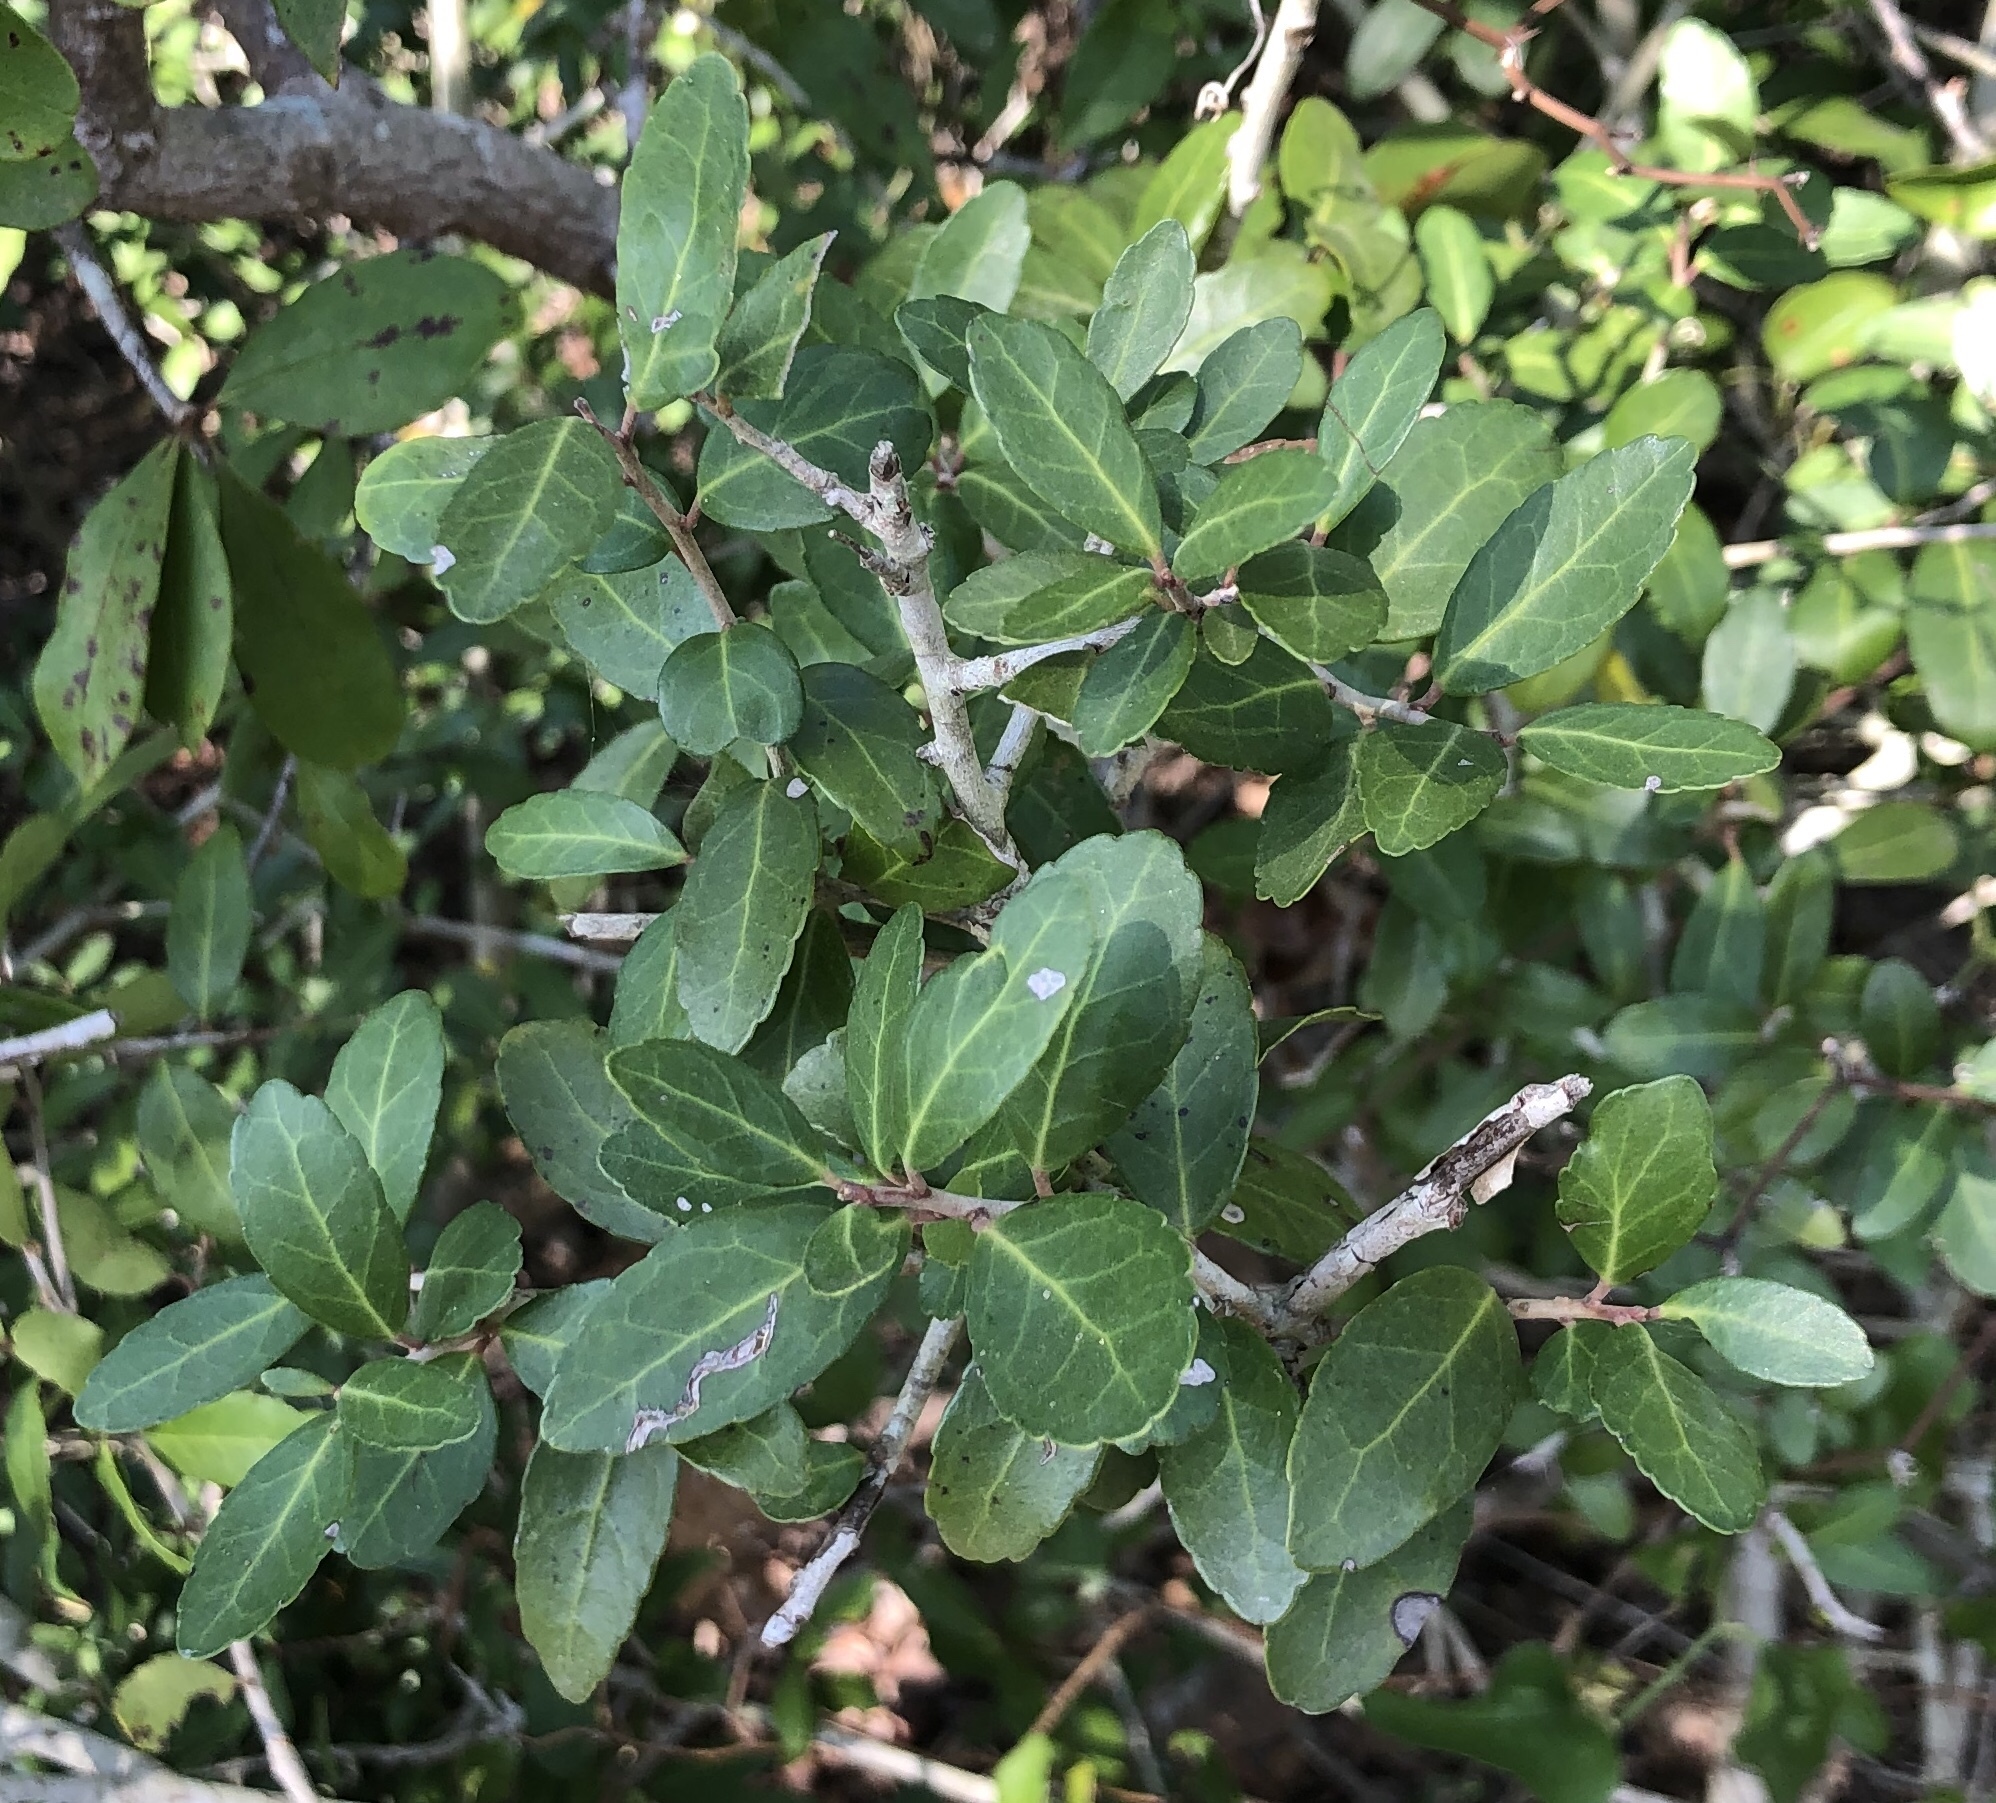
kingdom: Plantae
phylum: Tracheophyta
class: Magnoliopsida
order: Aquifoliales
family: Aquifoliaceae
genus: Ilex
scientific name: Ilex vomitoria
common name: Yaupon holly
